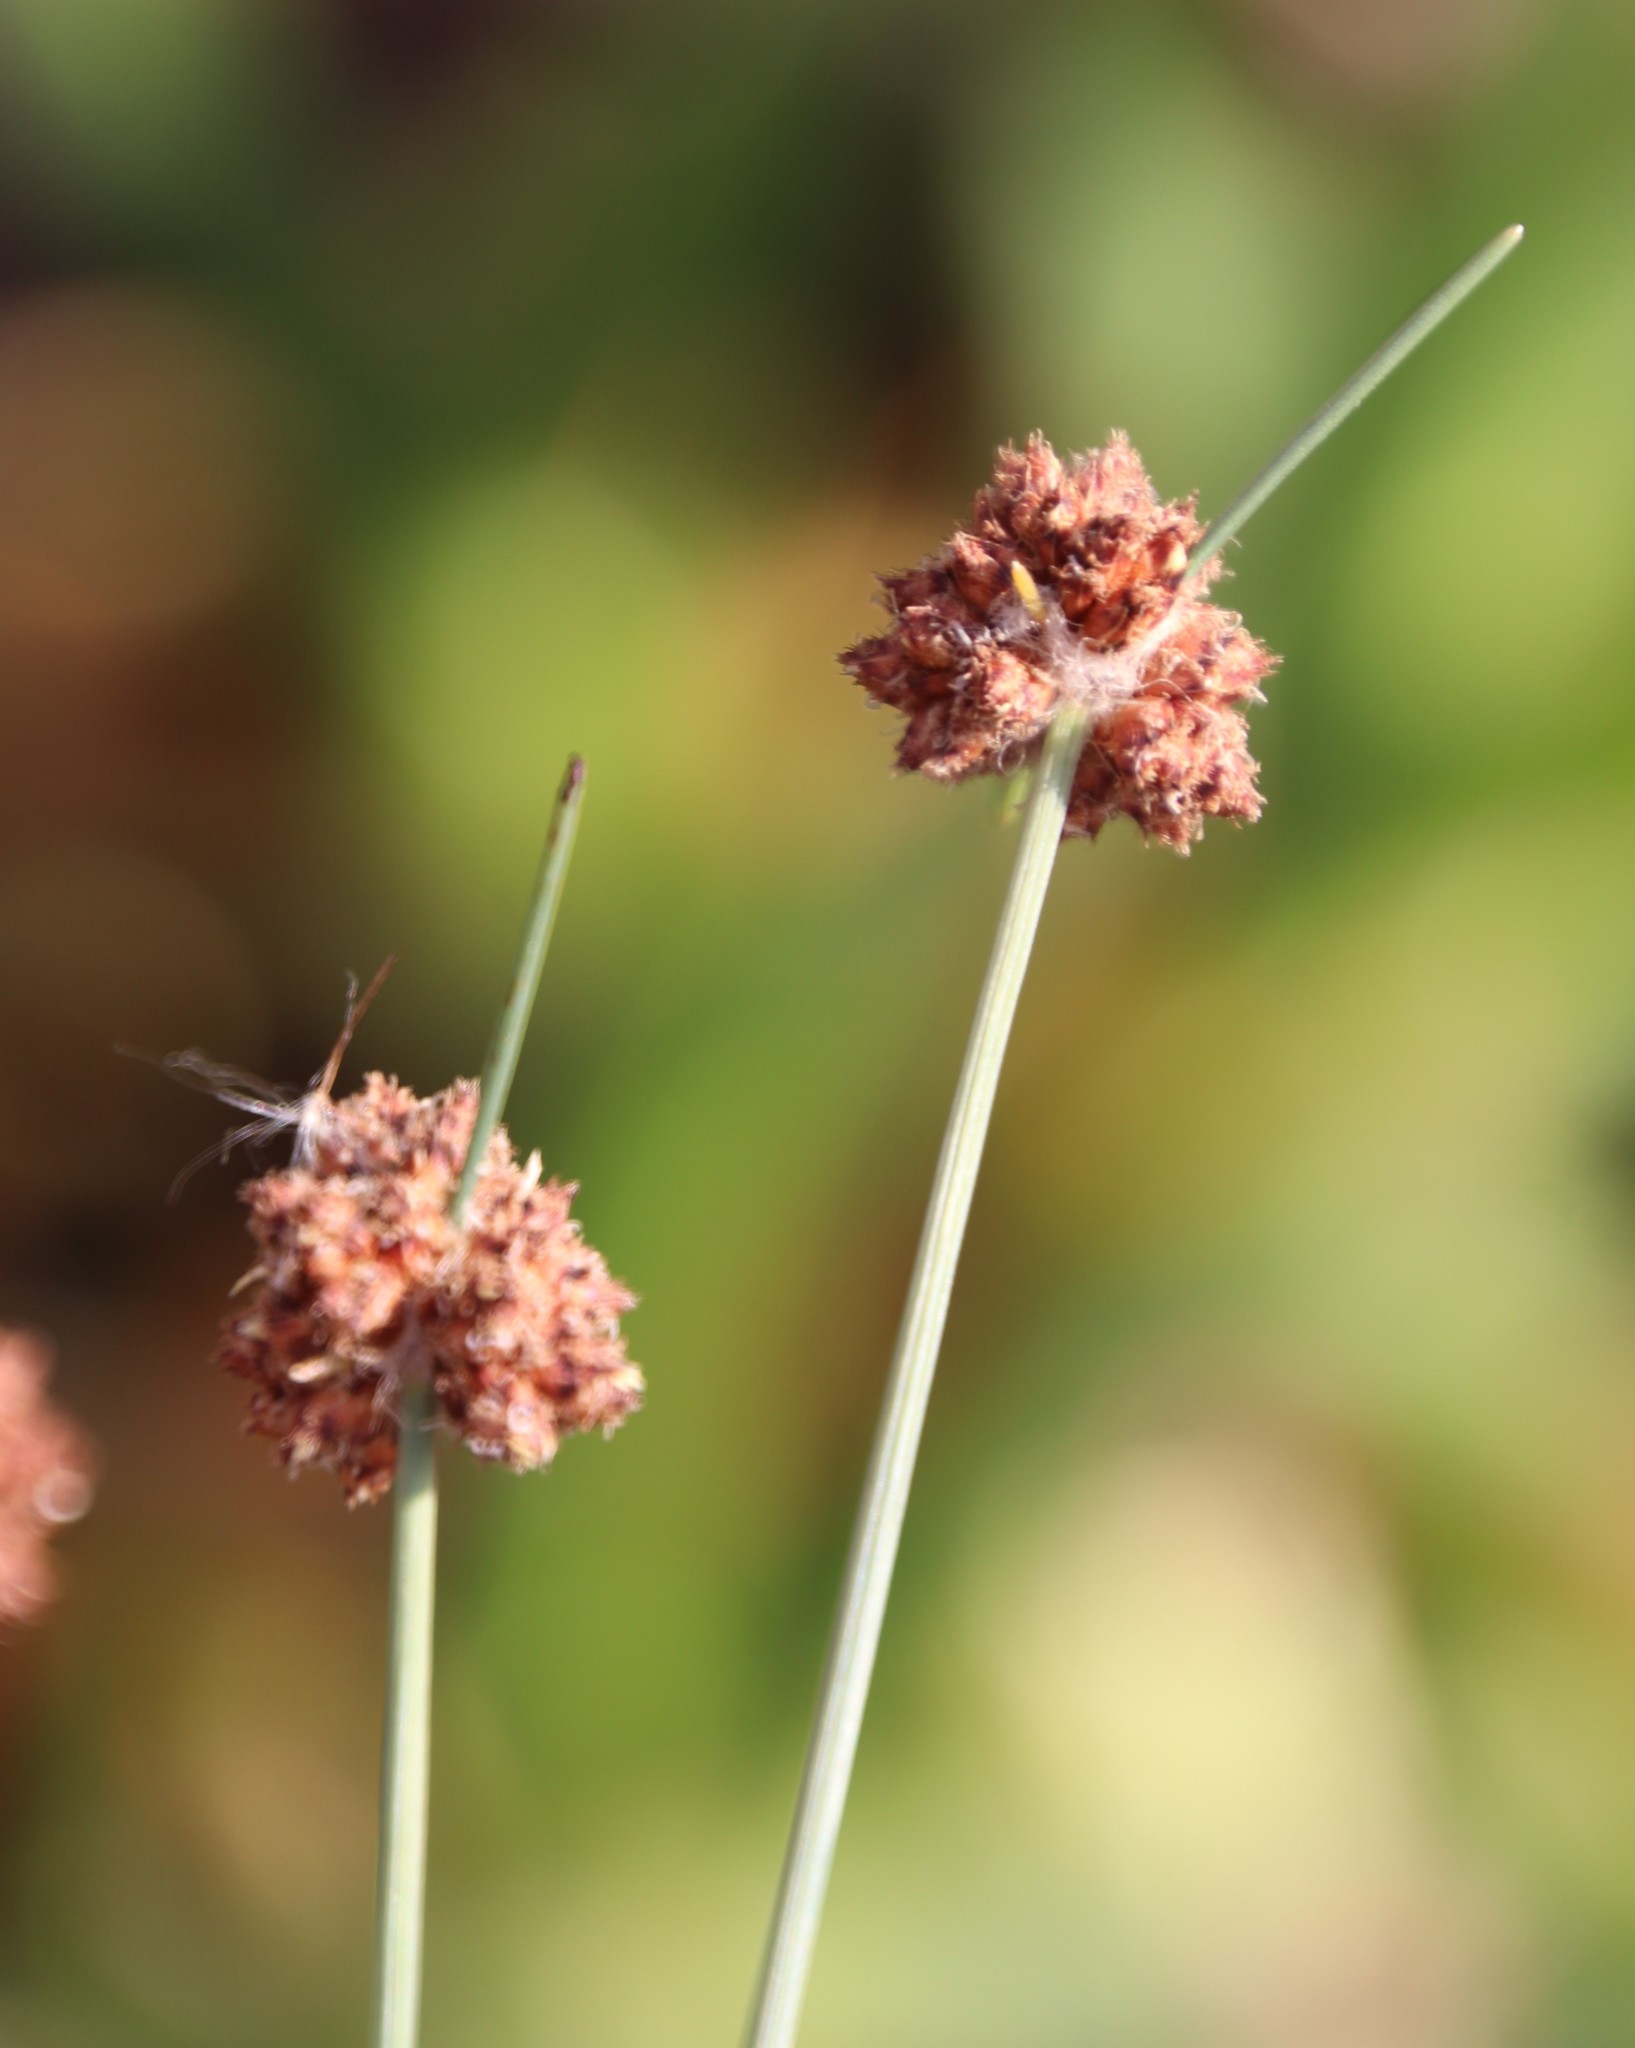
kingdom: Plantae
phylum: Tracheophyta
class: Liliopsida
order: Poales
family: Cyperaceae
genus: Ficinia
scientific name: Ficinia paradoxa
